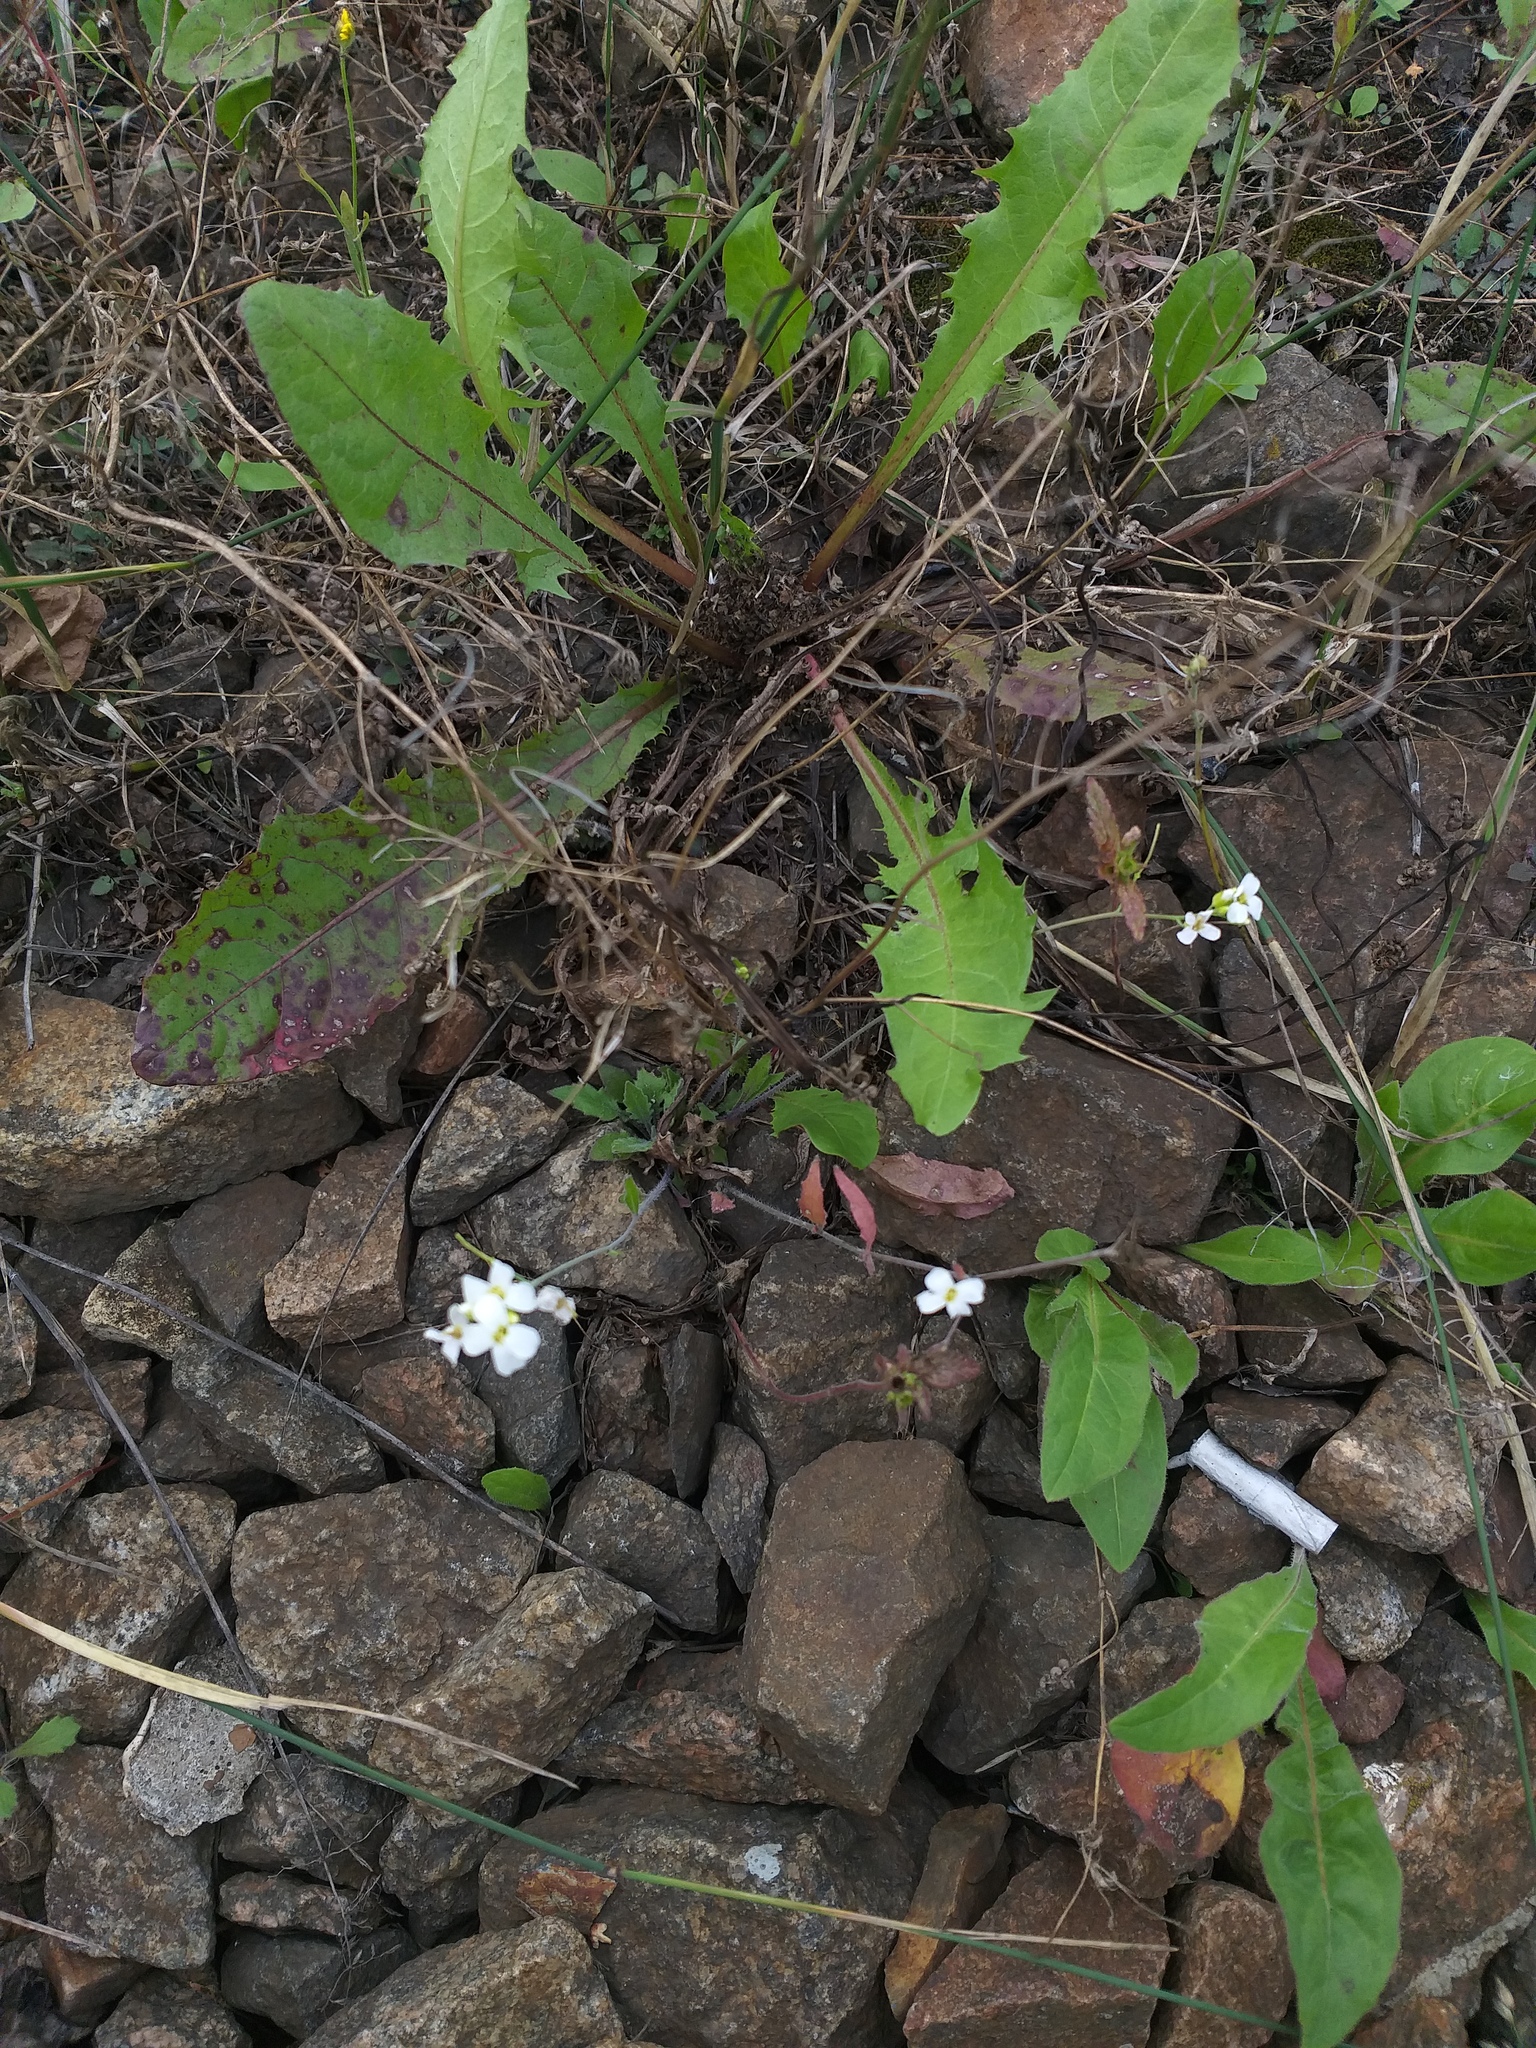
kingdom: Plantae
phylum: Tracheophyta
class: Magnoliopsida
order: Brassicales
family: Brassicaceae
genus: Arabidopsis
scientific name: Arabidopsis arenosa
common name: Sand rock-cress
